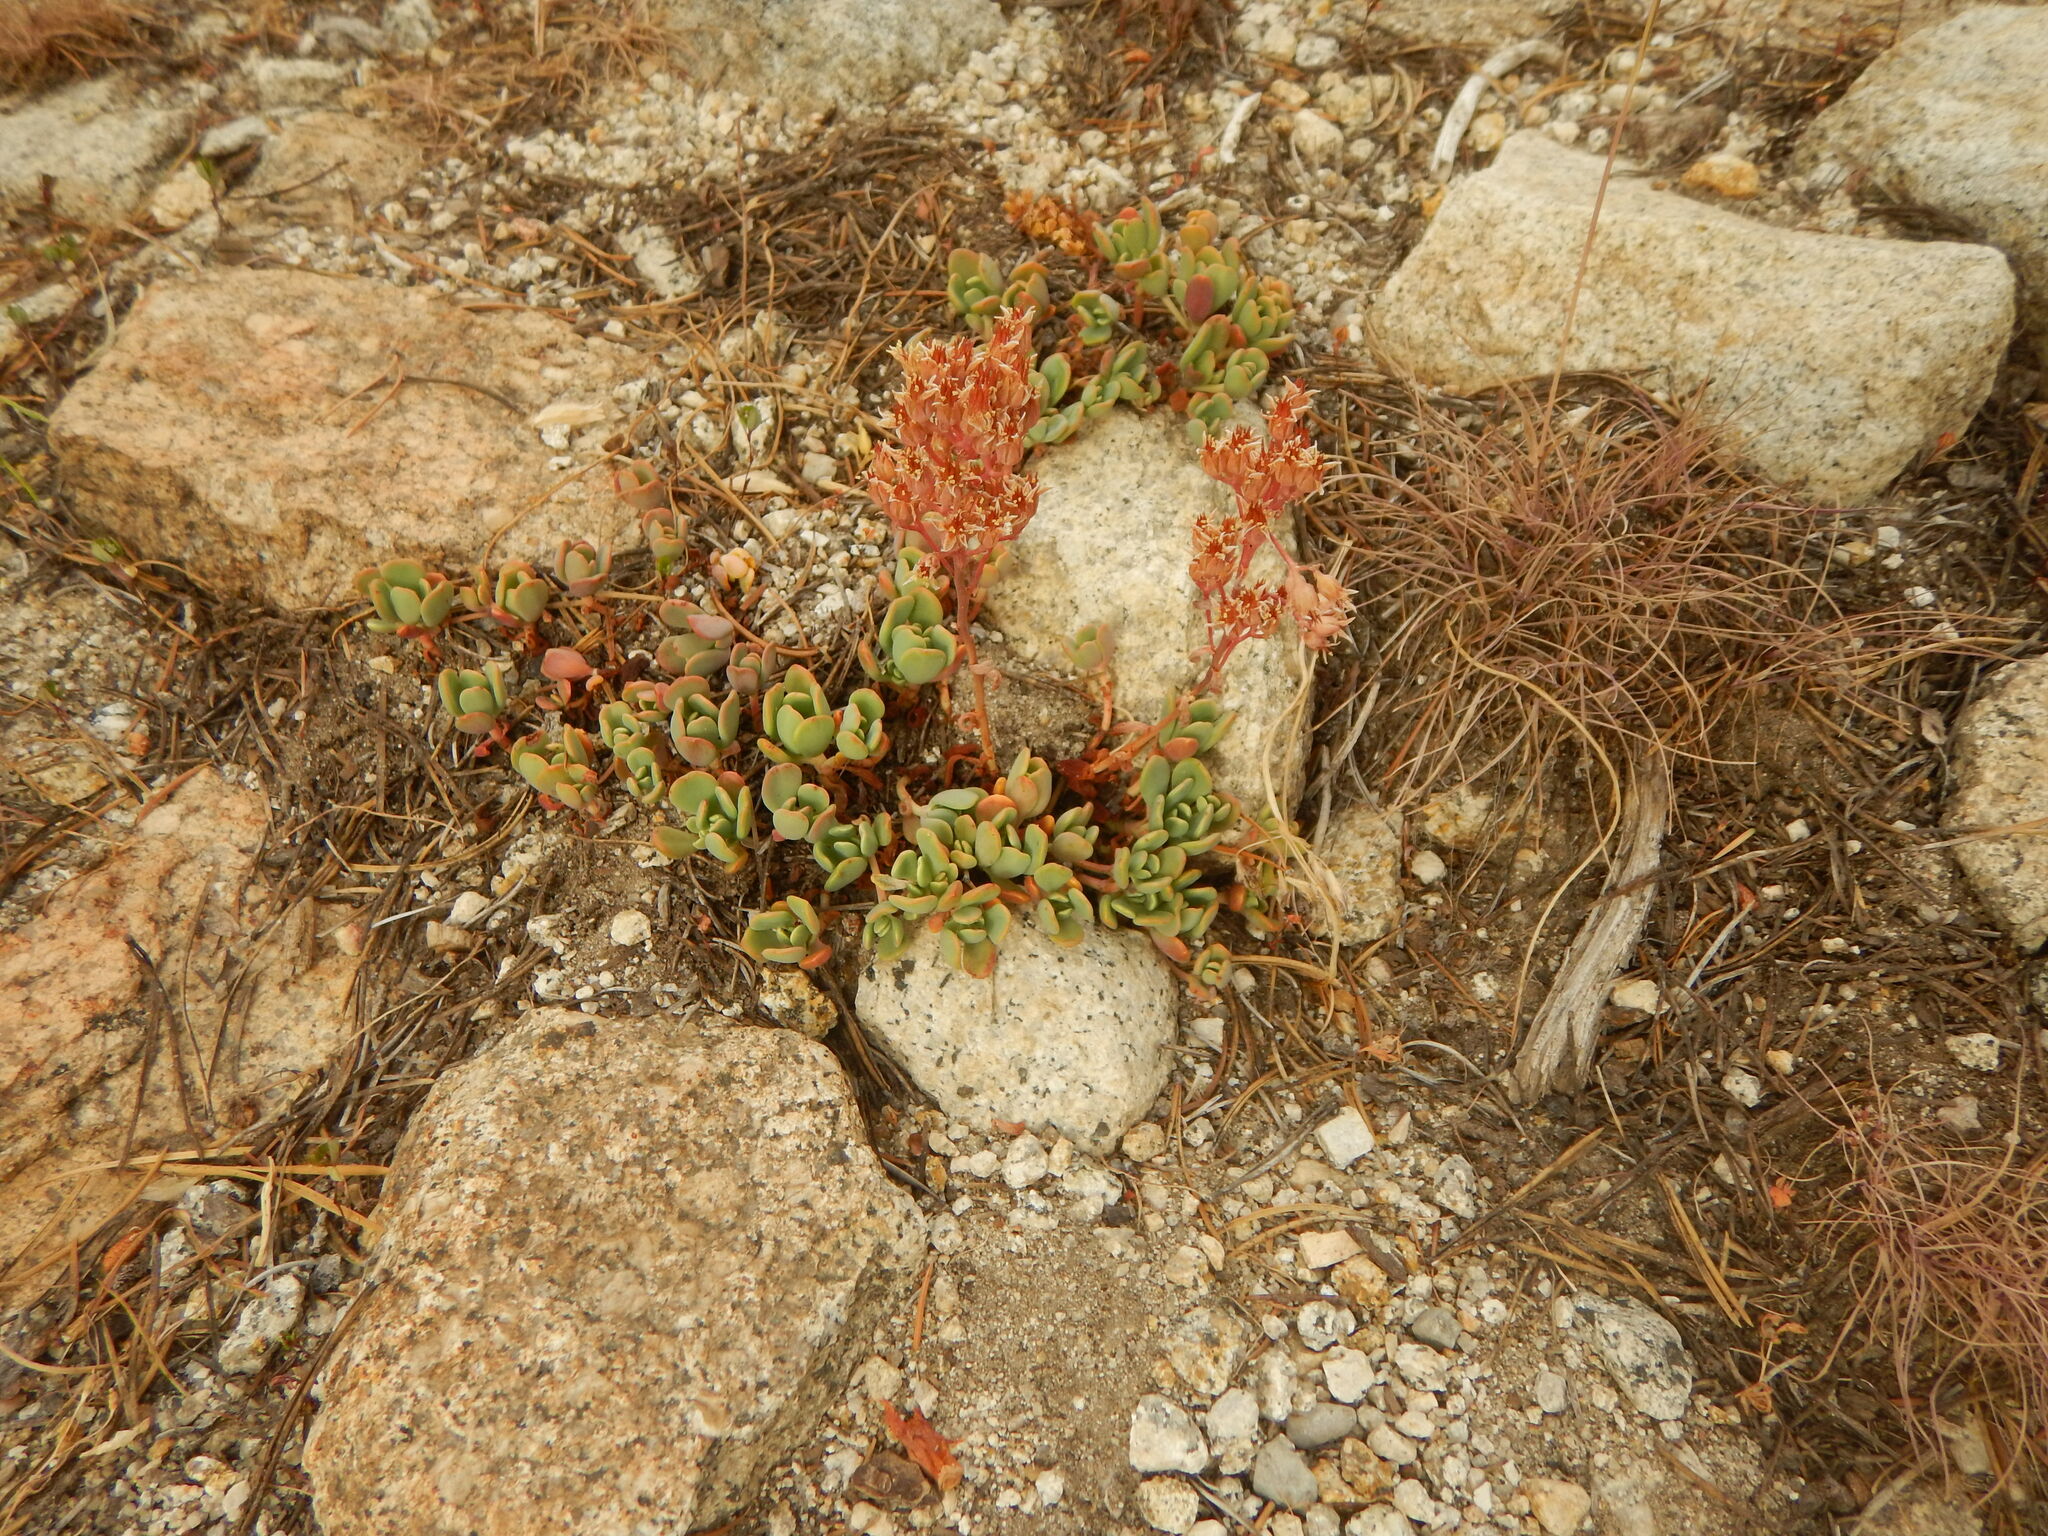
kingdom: Plantae
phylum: Tracheophyta
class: Magnoliopsida
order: Saxifragales
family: Crassulaceae
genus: Sedum
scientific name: Sedum obtusatum
